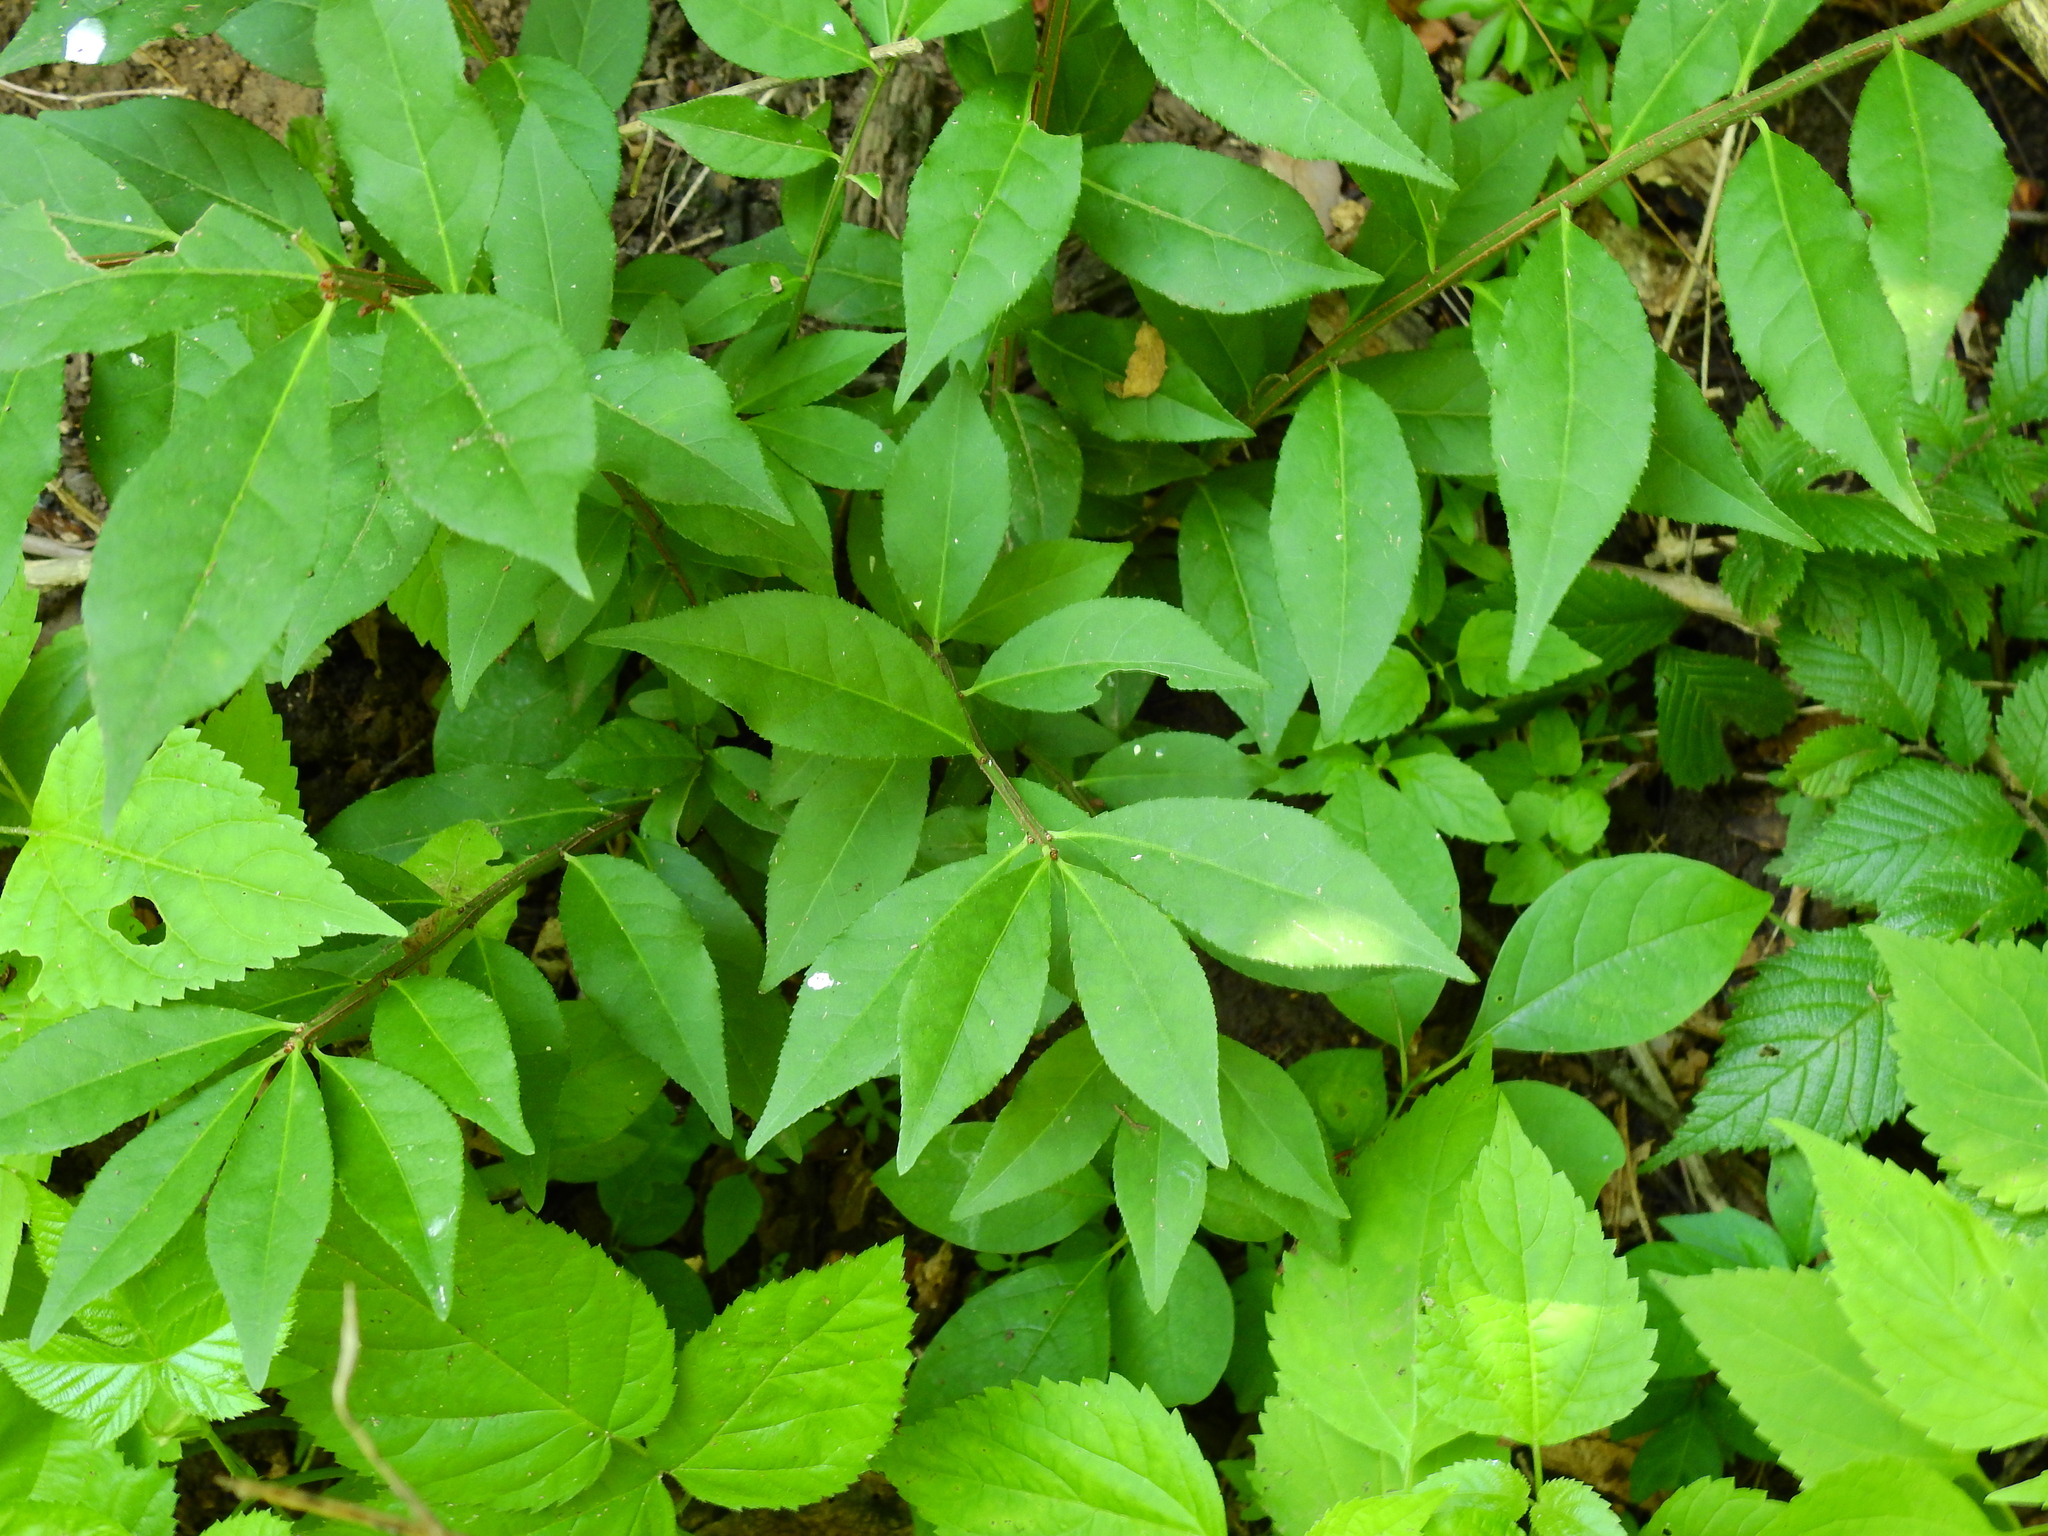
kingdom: Plantae
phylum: Tracheophyta
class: Magnoliopsida
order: Celastrales
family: Celastraceae
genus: Euonymus
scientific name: Euonymus alatus
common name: Winged euonymus
